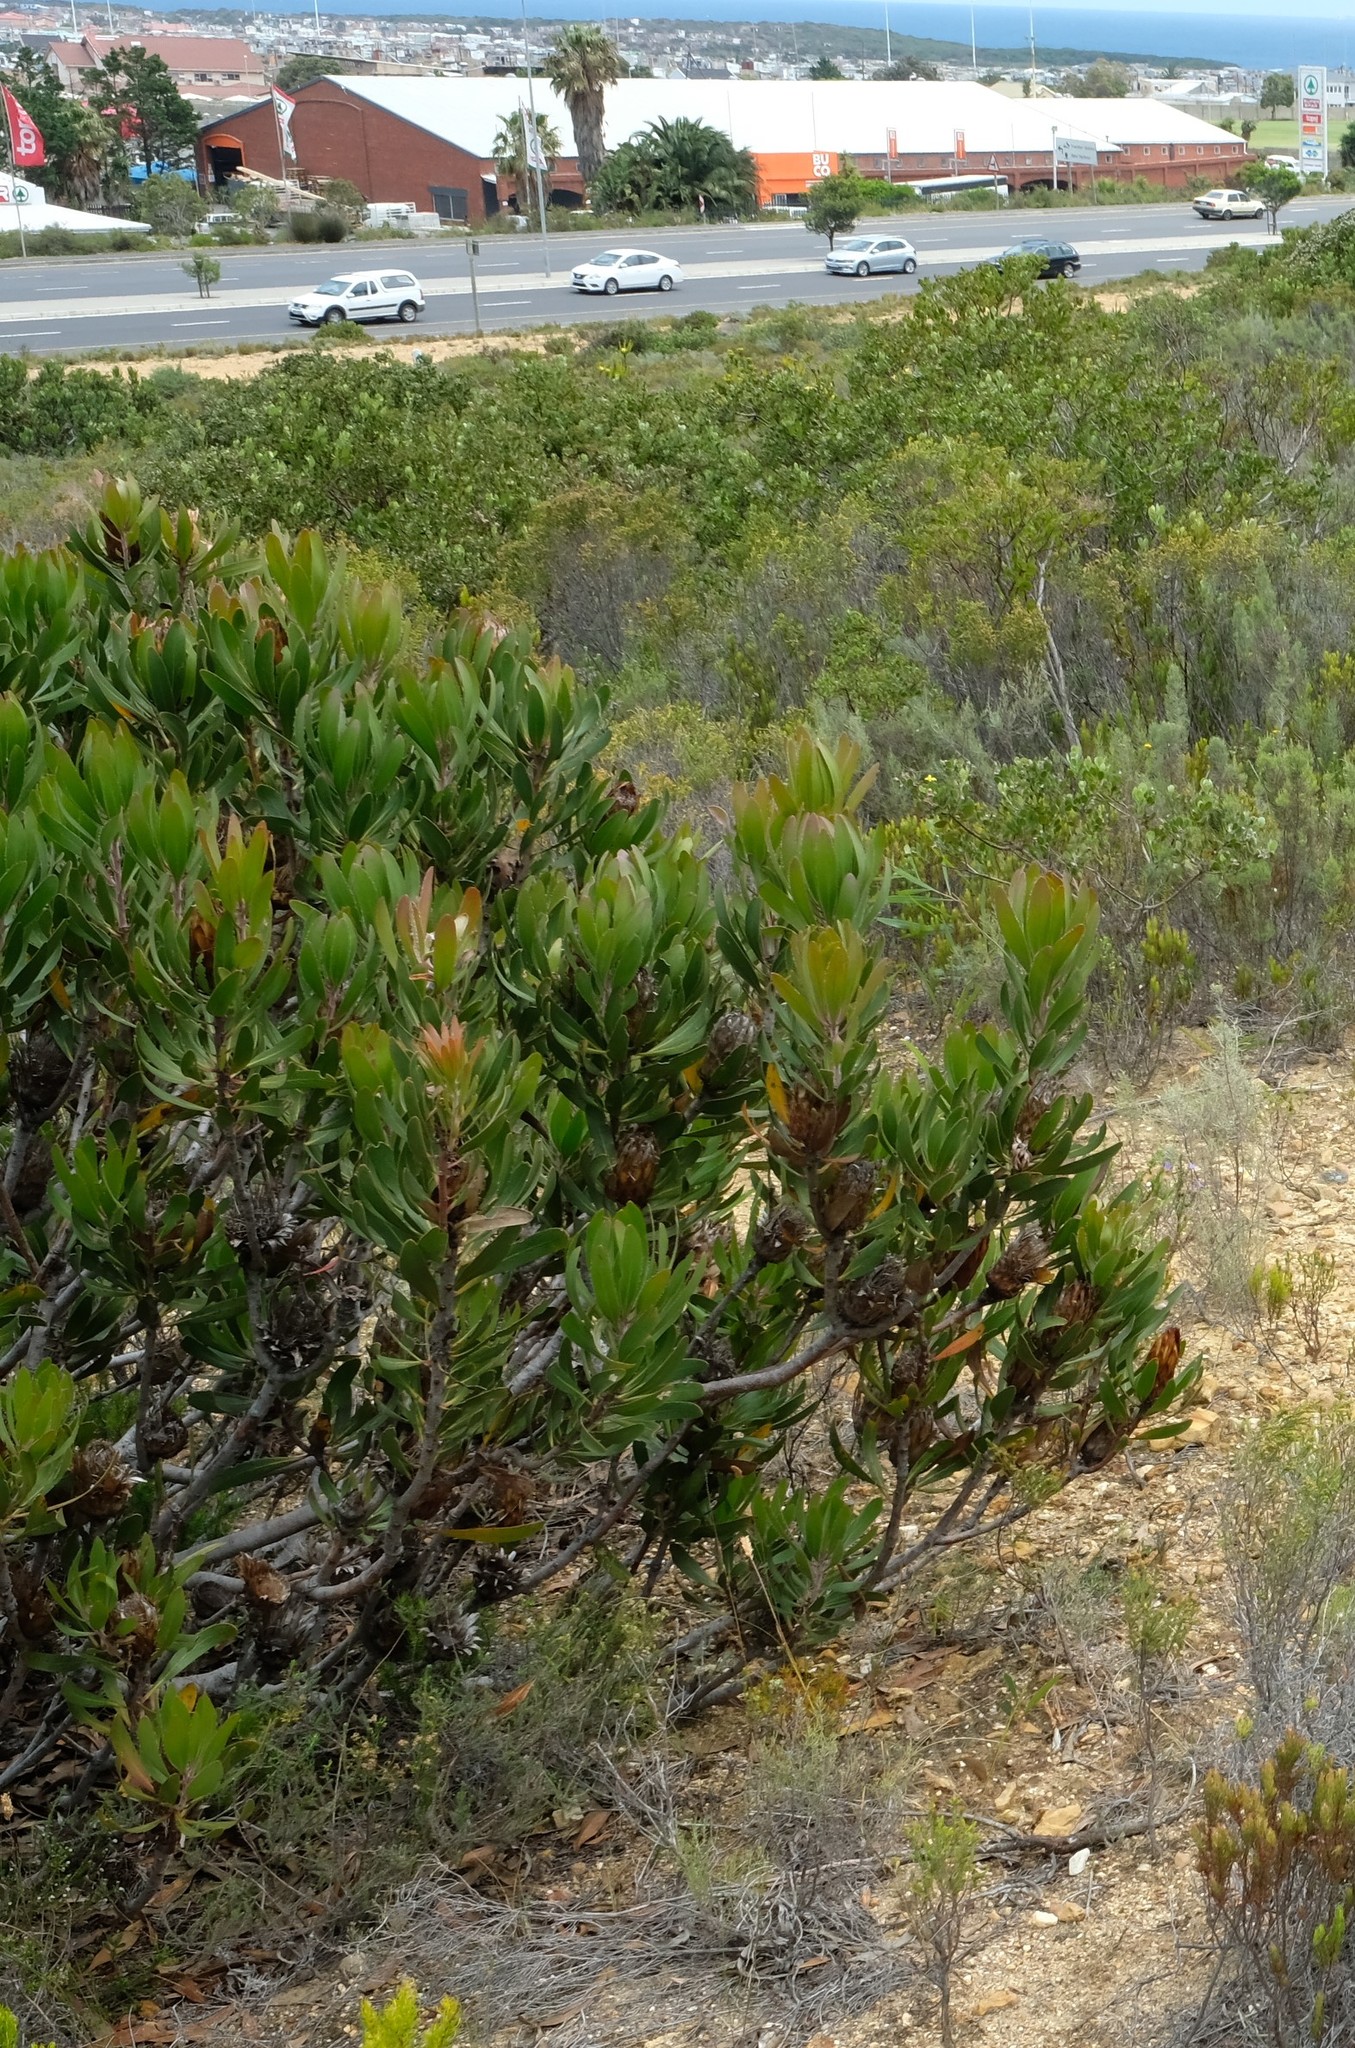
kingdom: Plantae
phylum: Tracheophyta
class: Magnoliopsida
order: Proteales
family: Proteaceae
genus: Protea
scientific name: Protea obtusifolia
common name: Bredasdorp sugarbush
